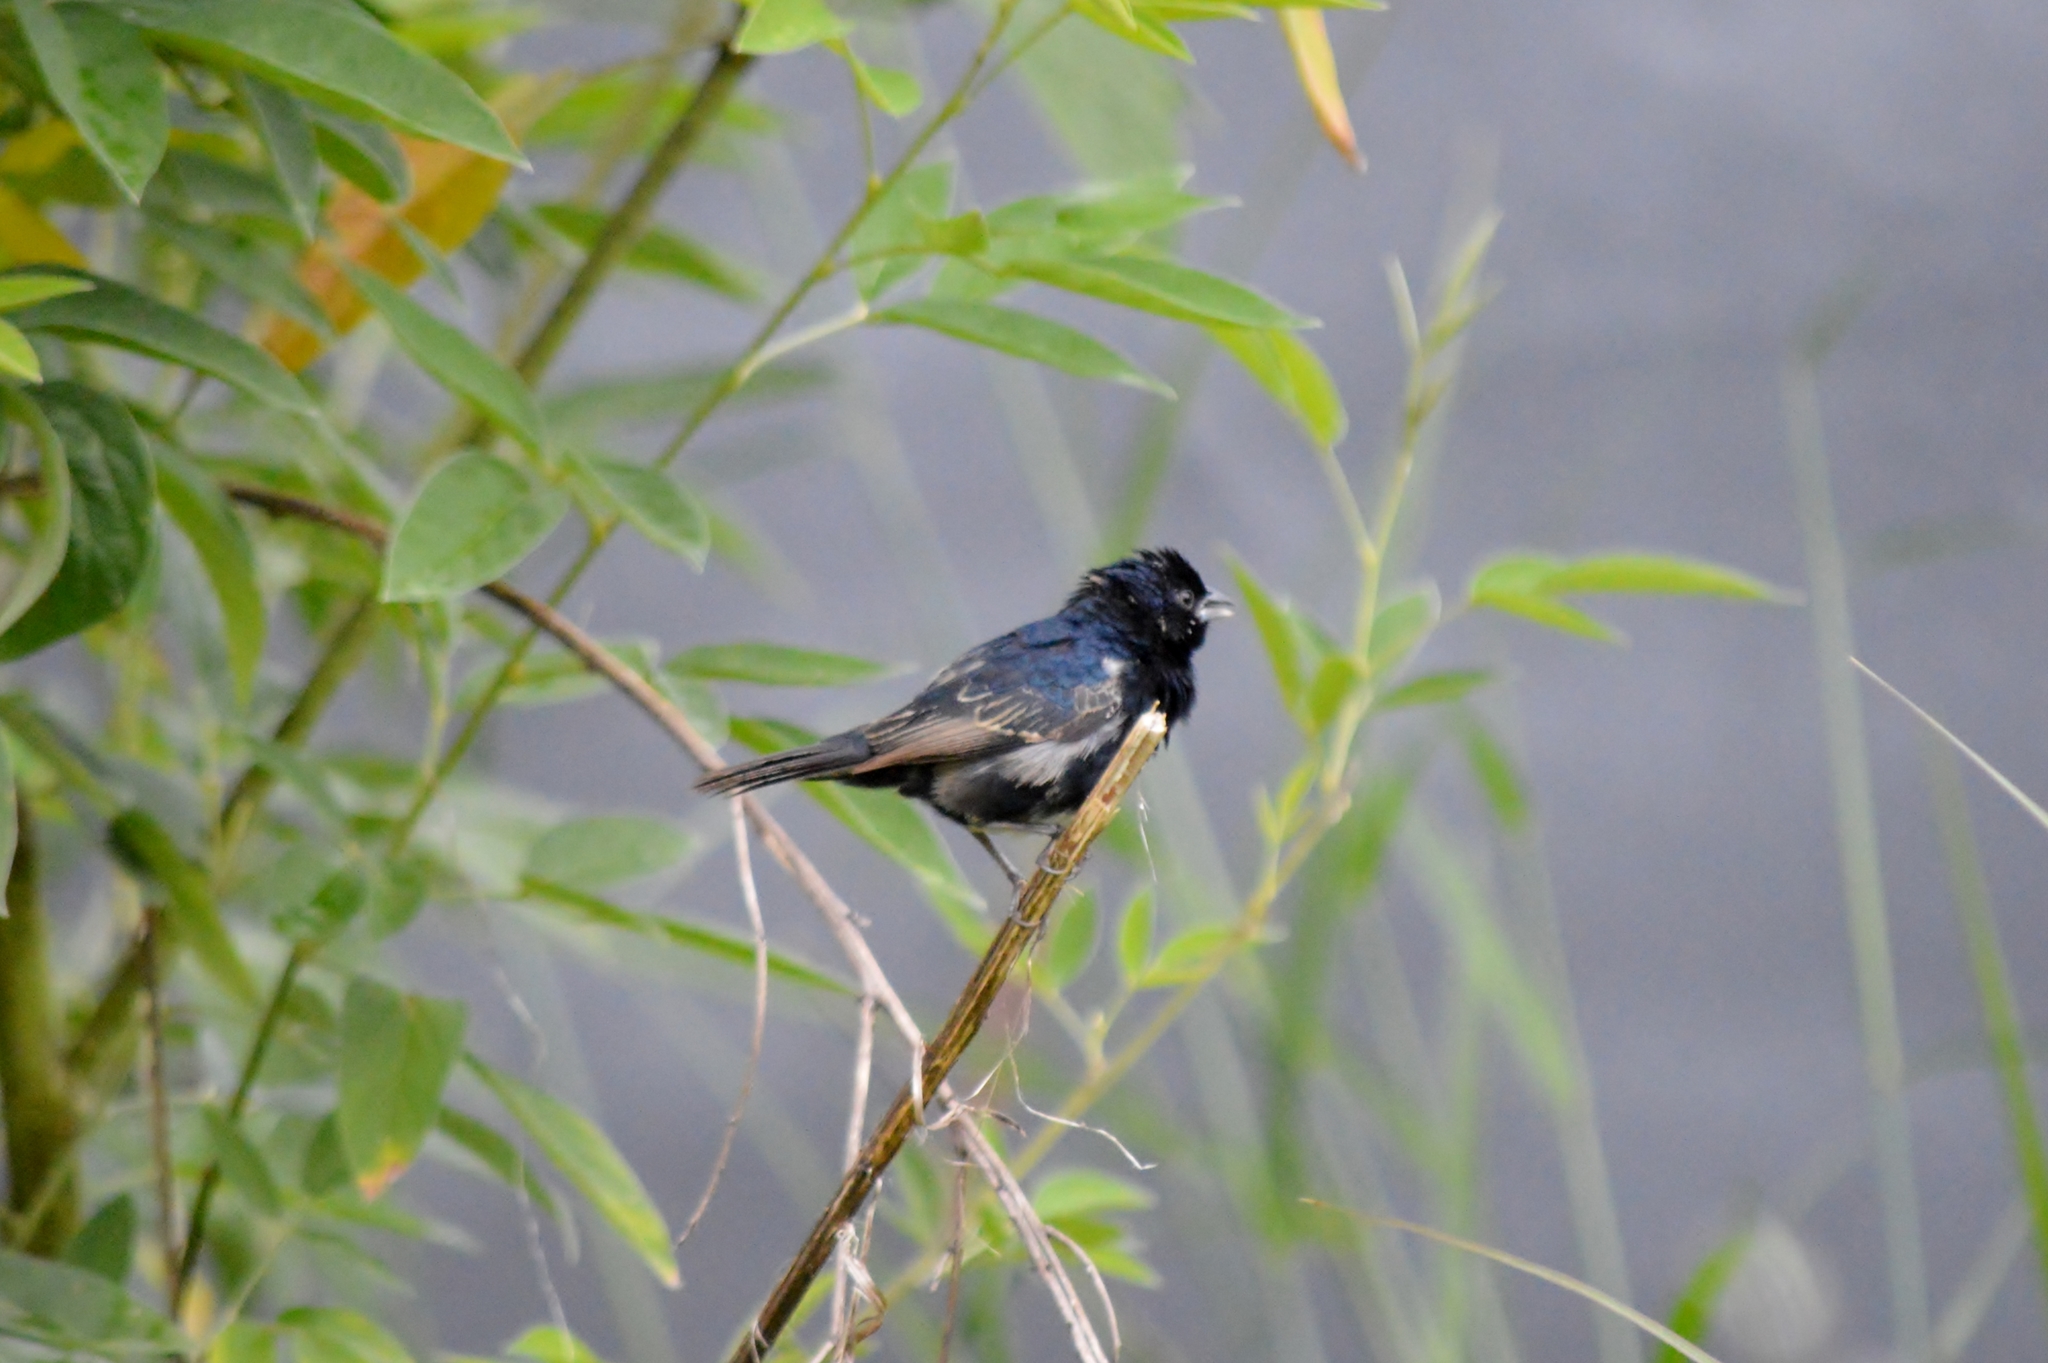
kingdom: Animalia
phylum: Chordata
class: Aves
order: Passeriformes
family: Thraupidae
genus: Volatinia
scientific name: Volatinia jacarina
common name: Blue-black grassquit
